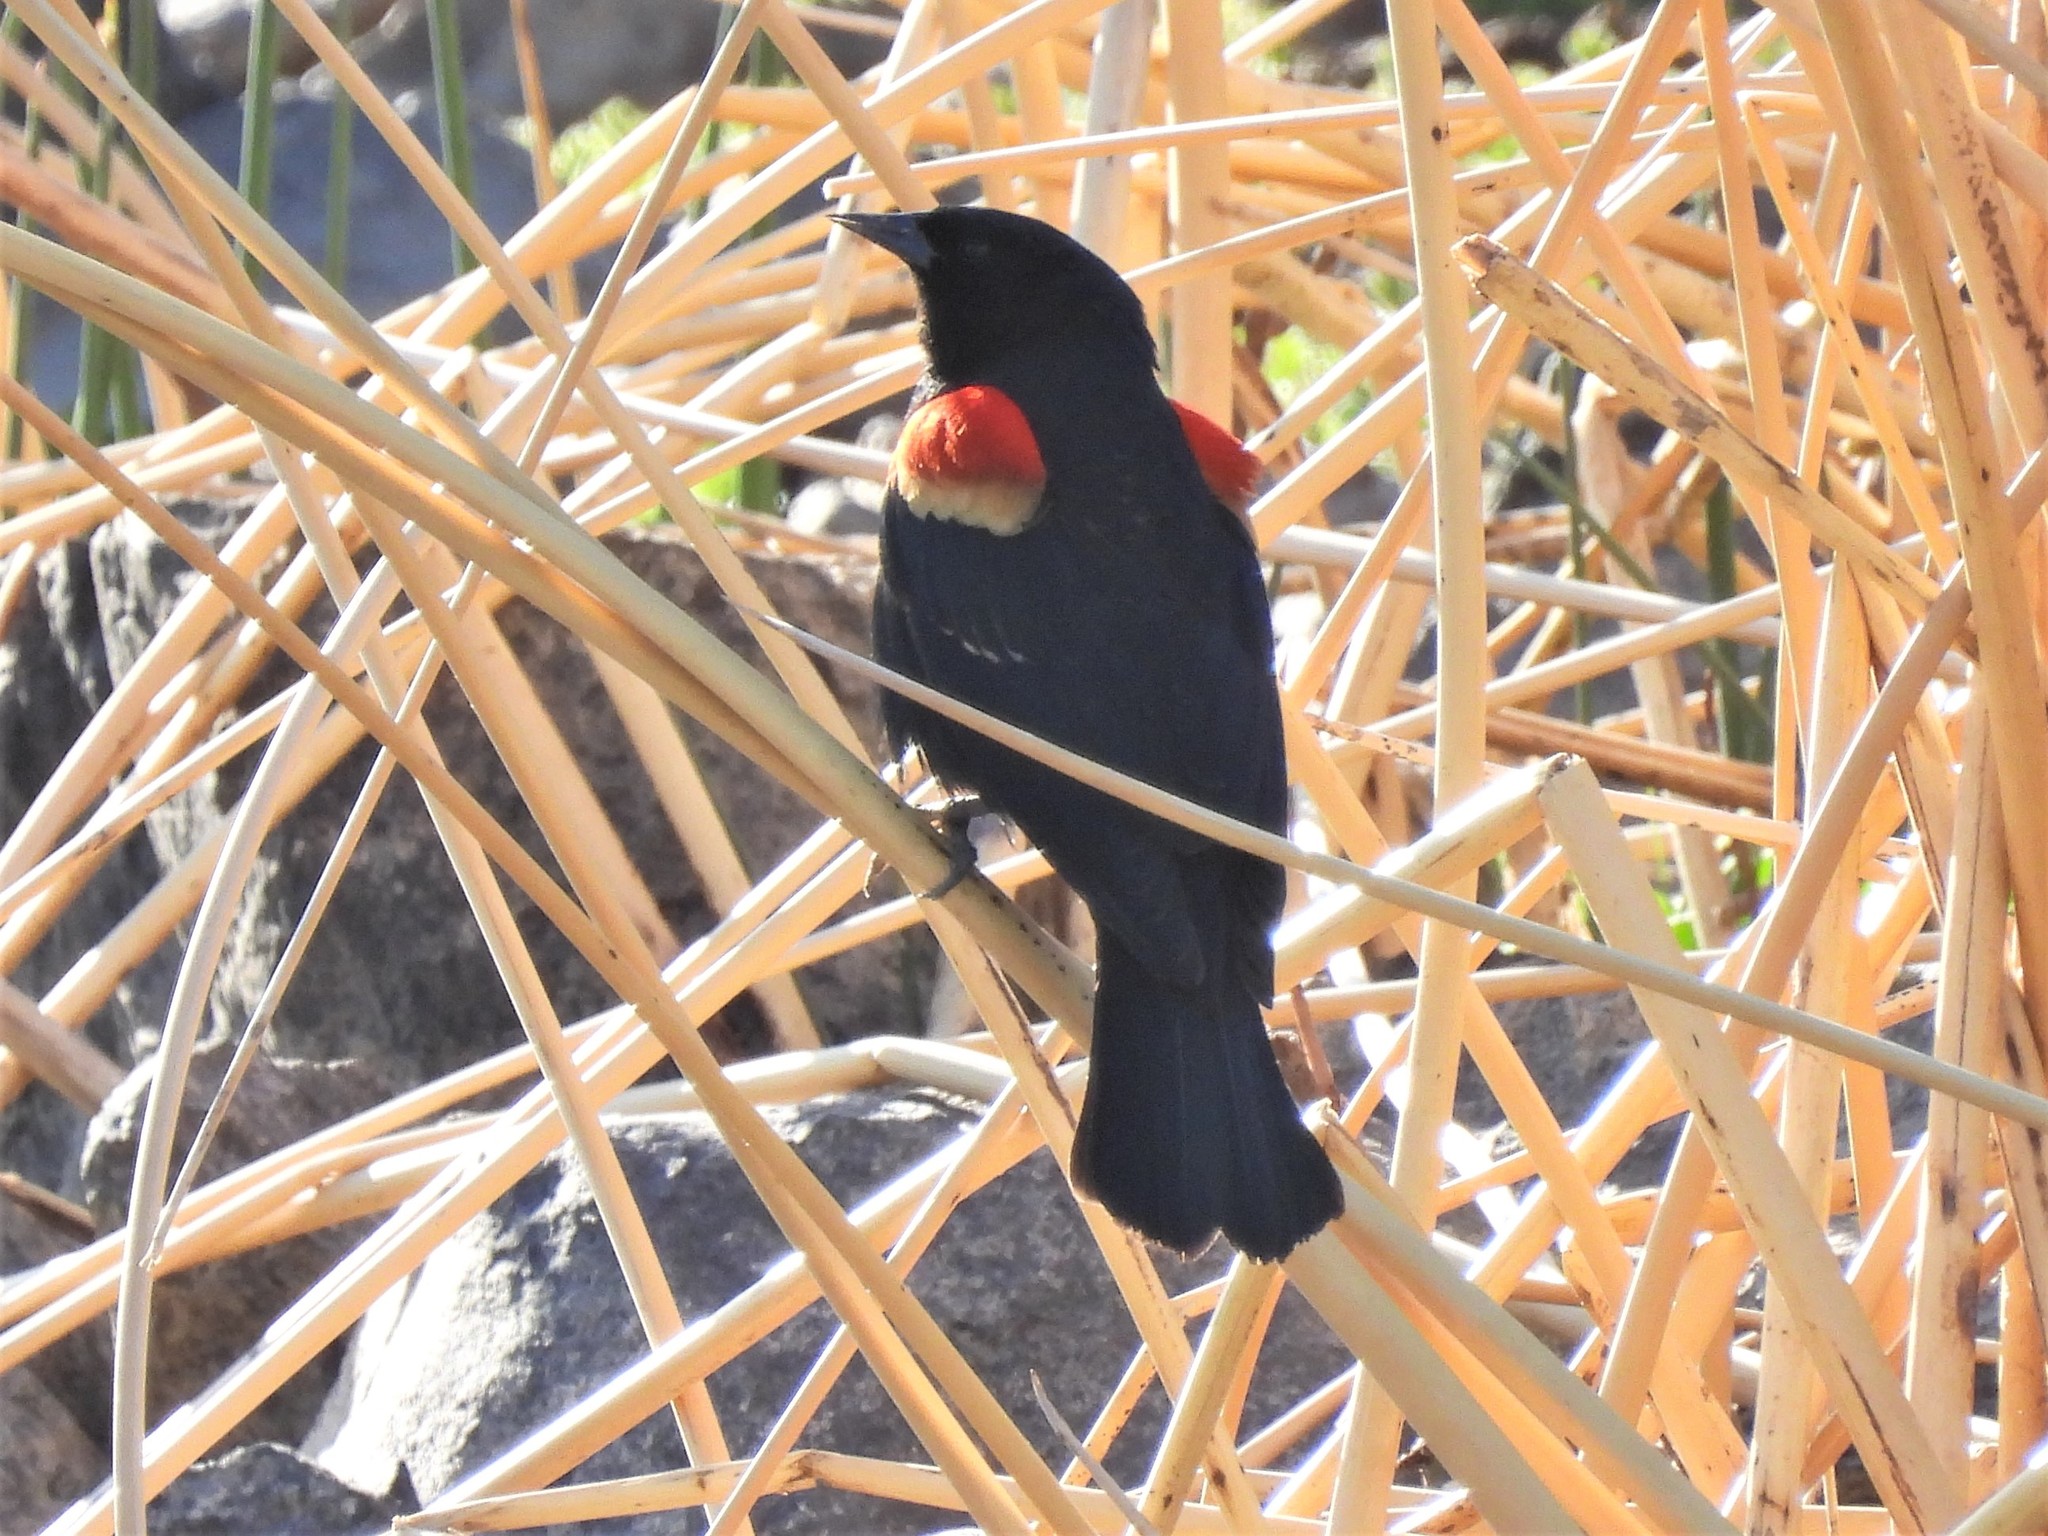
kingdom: Animalia
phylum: Chordata
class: Aves
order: Passeriformes
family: Icteridae
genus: Agelaius
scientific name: Agelaius phoeniceus
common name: Red-winged blackbird
